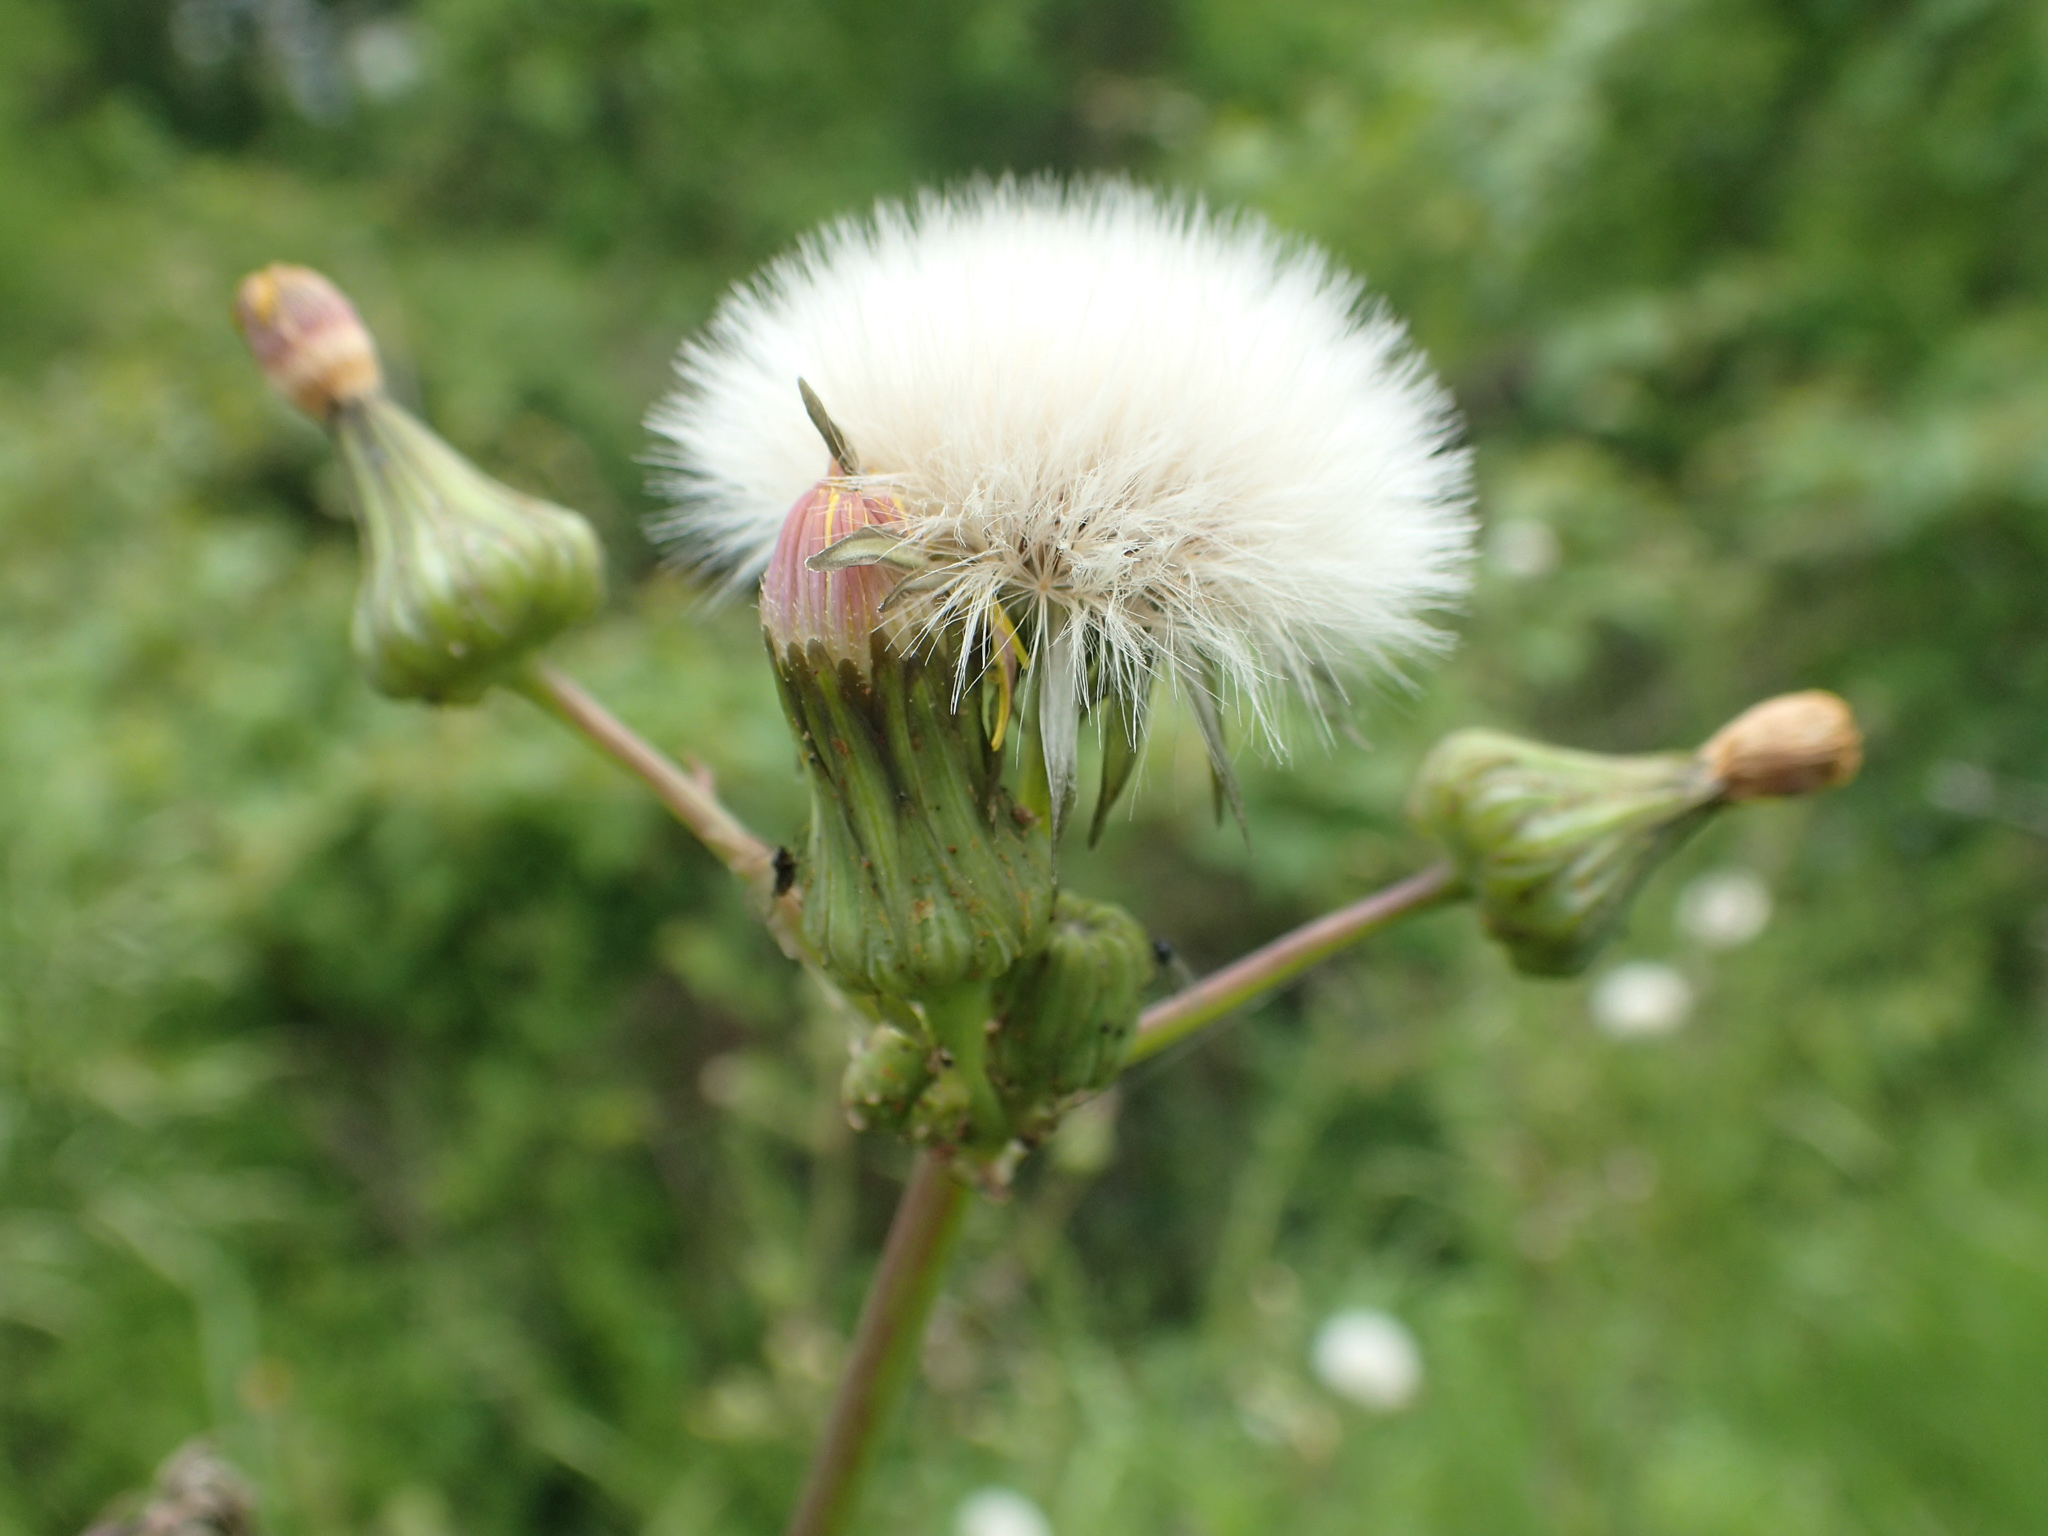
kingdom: Plantae
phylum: Tracheophyta
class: Magnoliopsida
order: Asterales
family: Asteraceae
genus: Sonchus
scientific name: Sonchus oleraceus
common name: Common sowthistle
